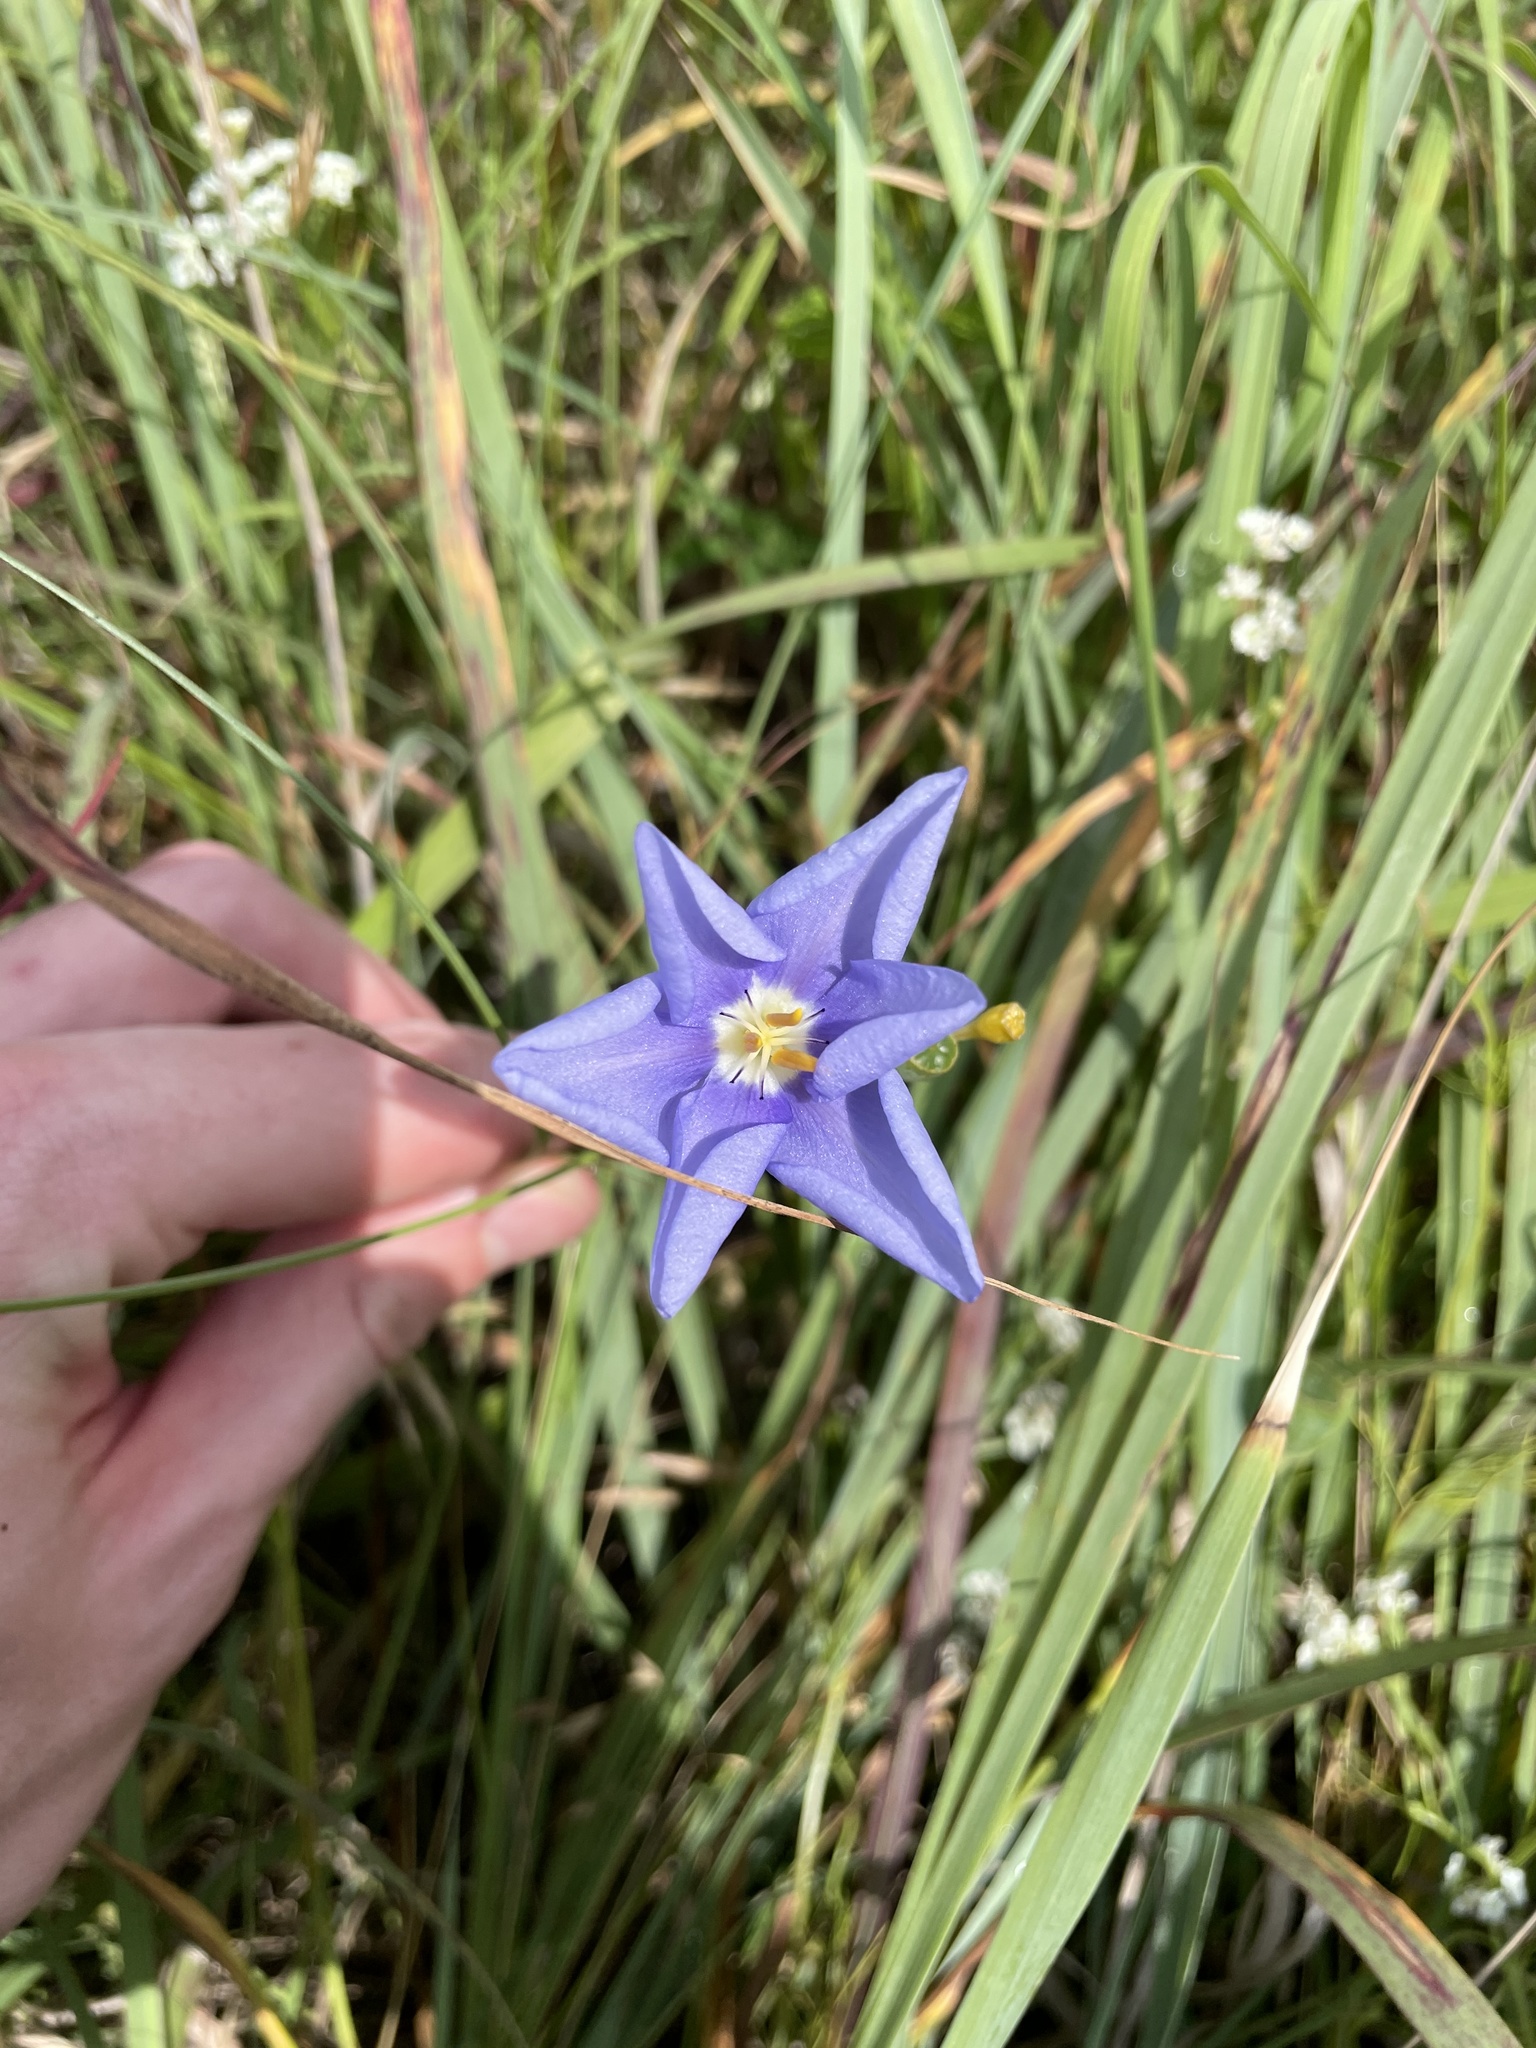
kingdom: Plantae
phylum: Tracheophyta
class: Liliopsida
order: Asparagales
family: Iridaceae
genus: Nemastylis
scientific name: Nemastylis geminiflora
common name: Prairie celestial
